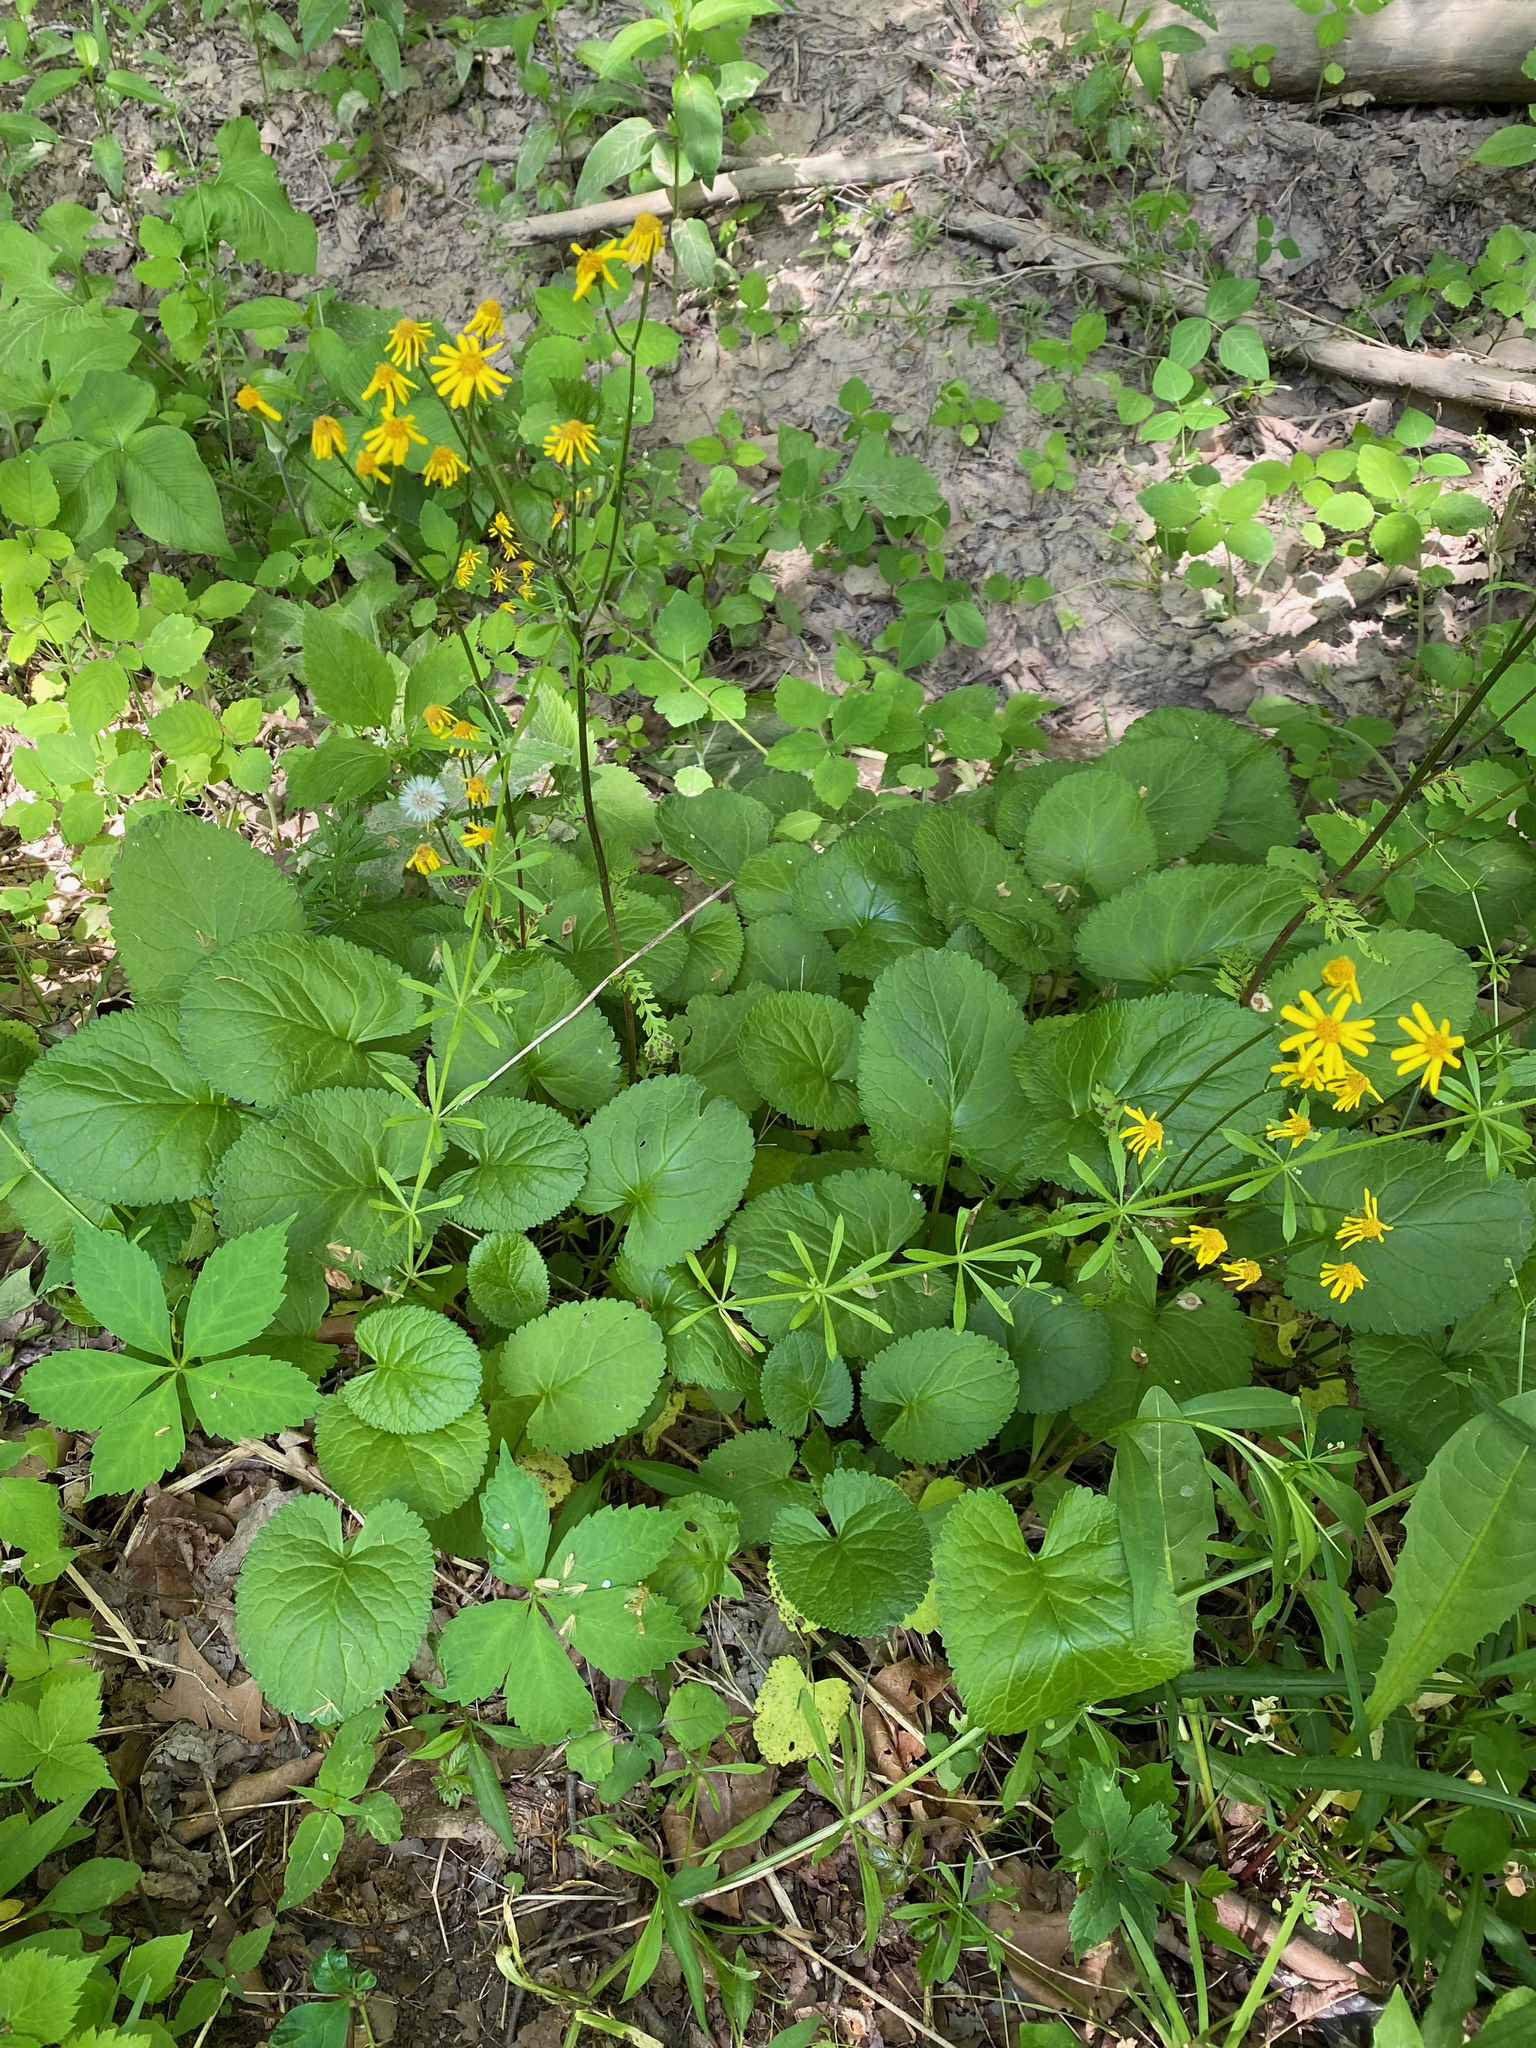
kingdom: Plantae
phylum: Tracheophyta
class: Magnoliopsida
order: Asterales
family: Asteraceae
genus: Packera
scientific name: Packera aurea
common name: Golden groundsel
